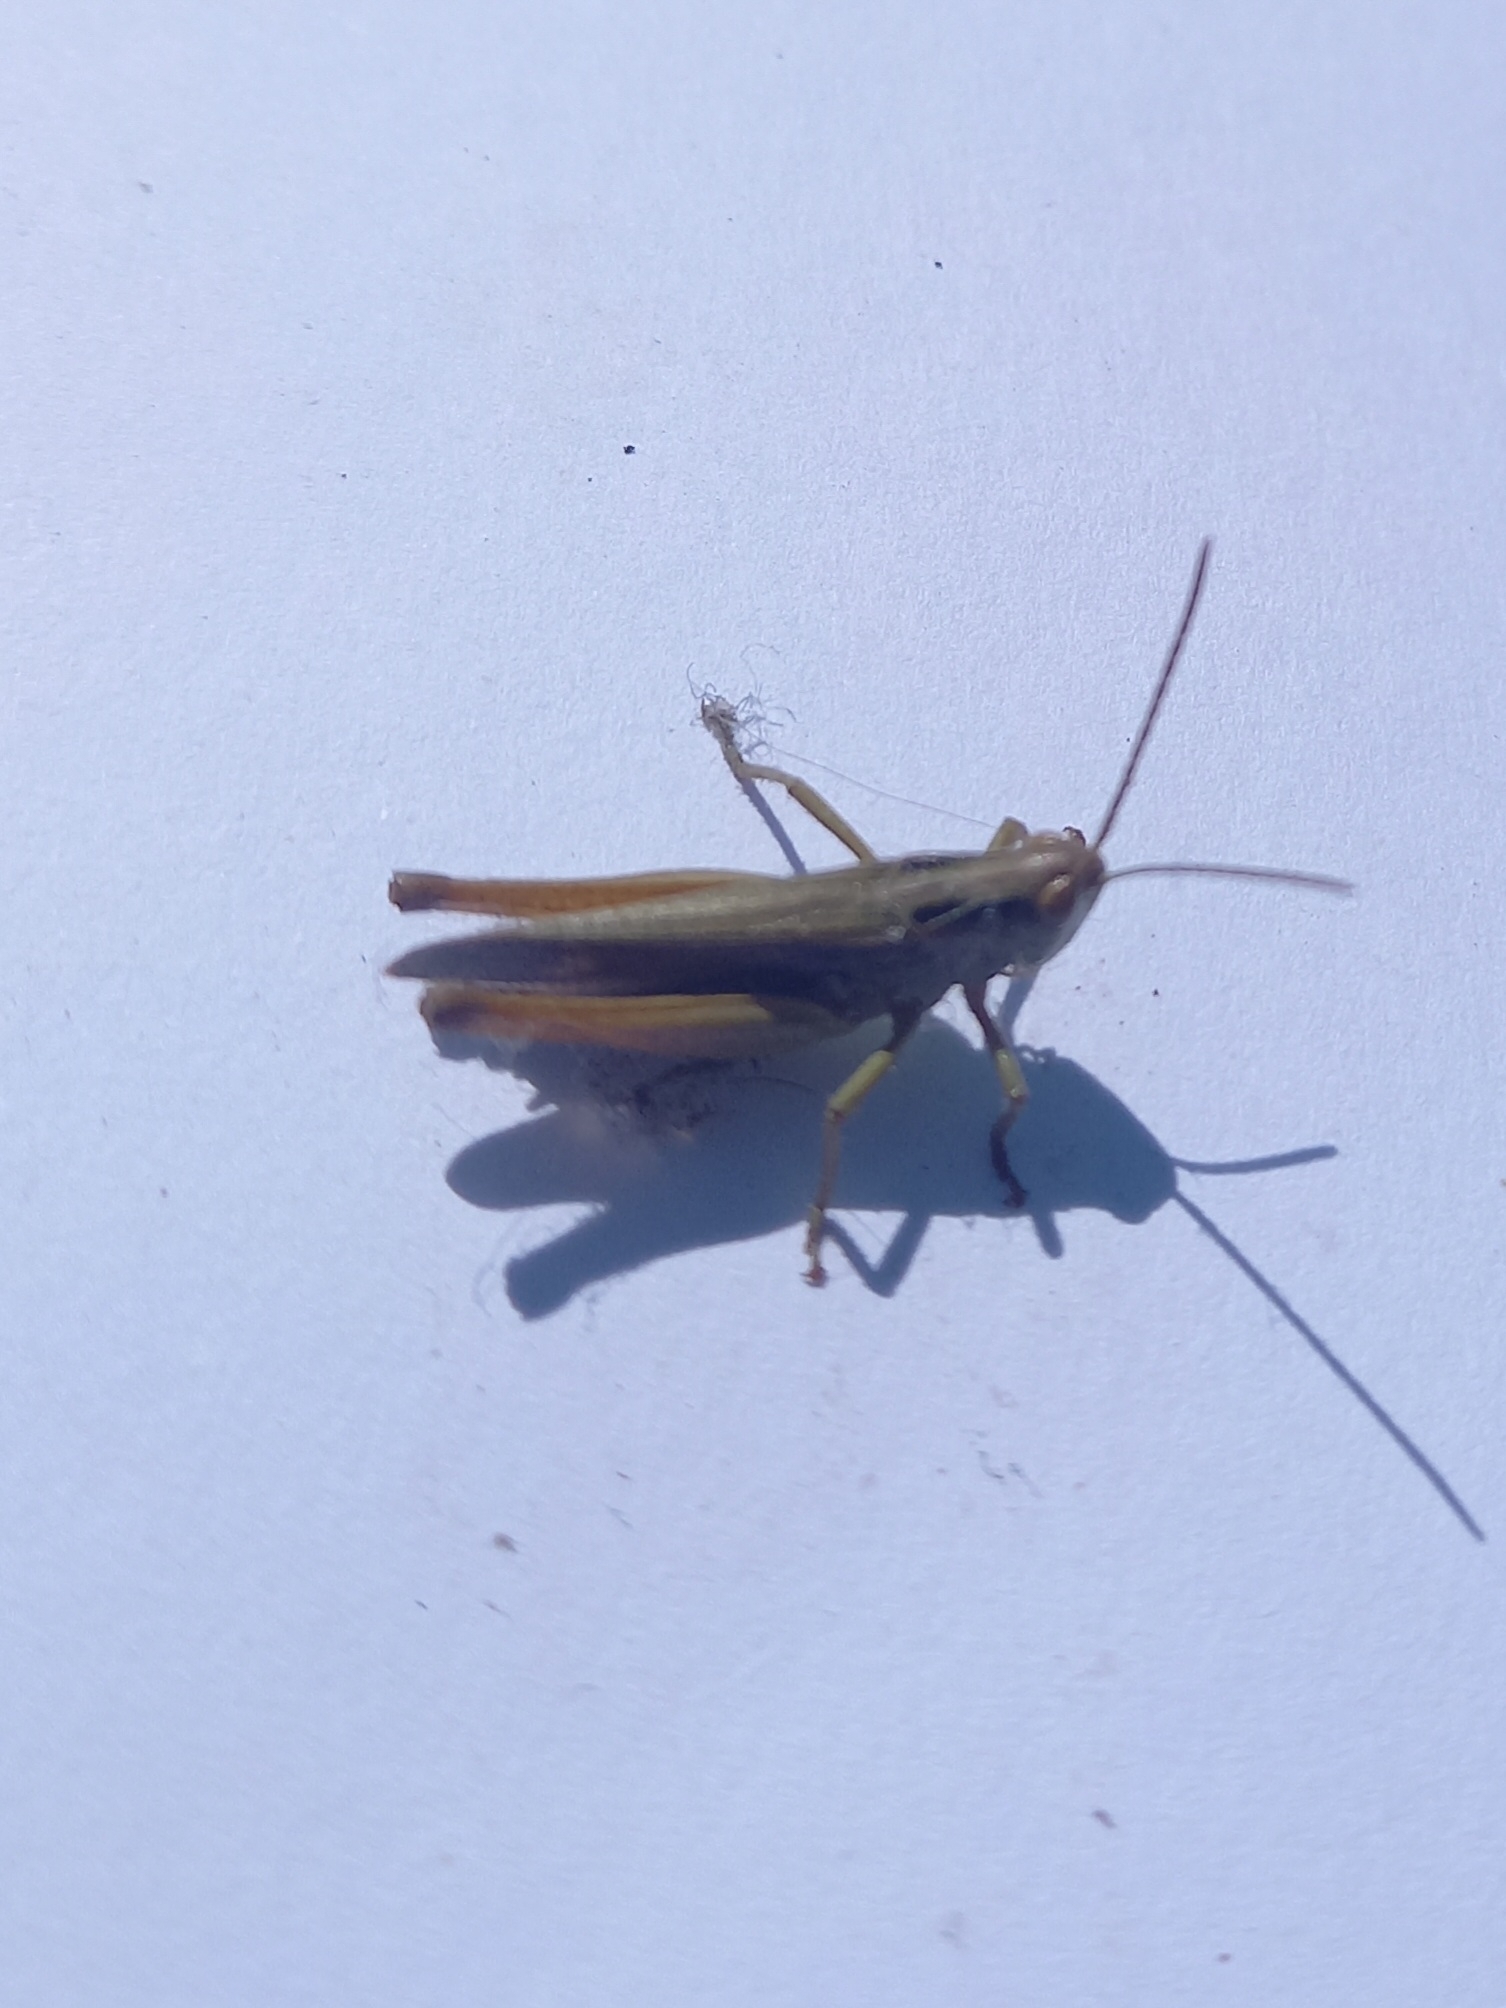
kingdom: Animalia
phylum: Arthropoda
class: Insecta
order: Orthoptera
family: Acrididae
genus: Omocestus
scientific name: Omocestus viridulus
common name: Common green grasshopper
